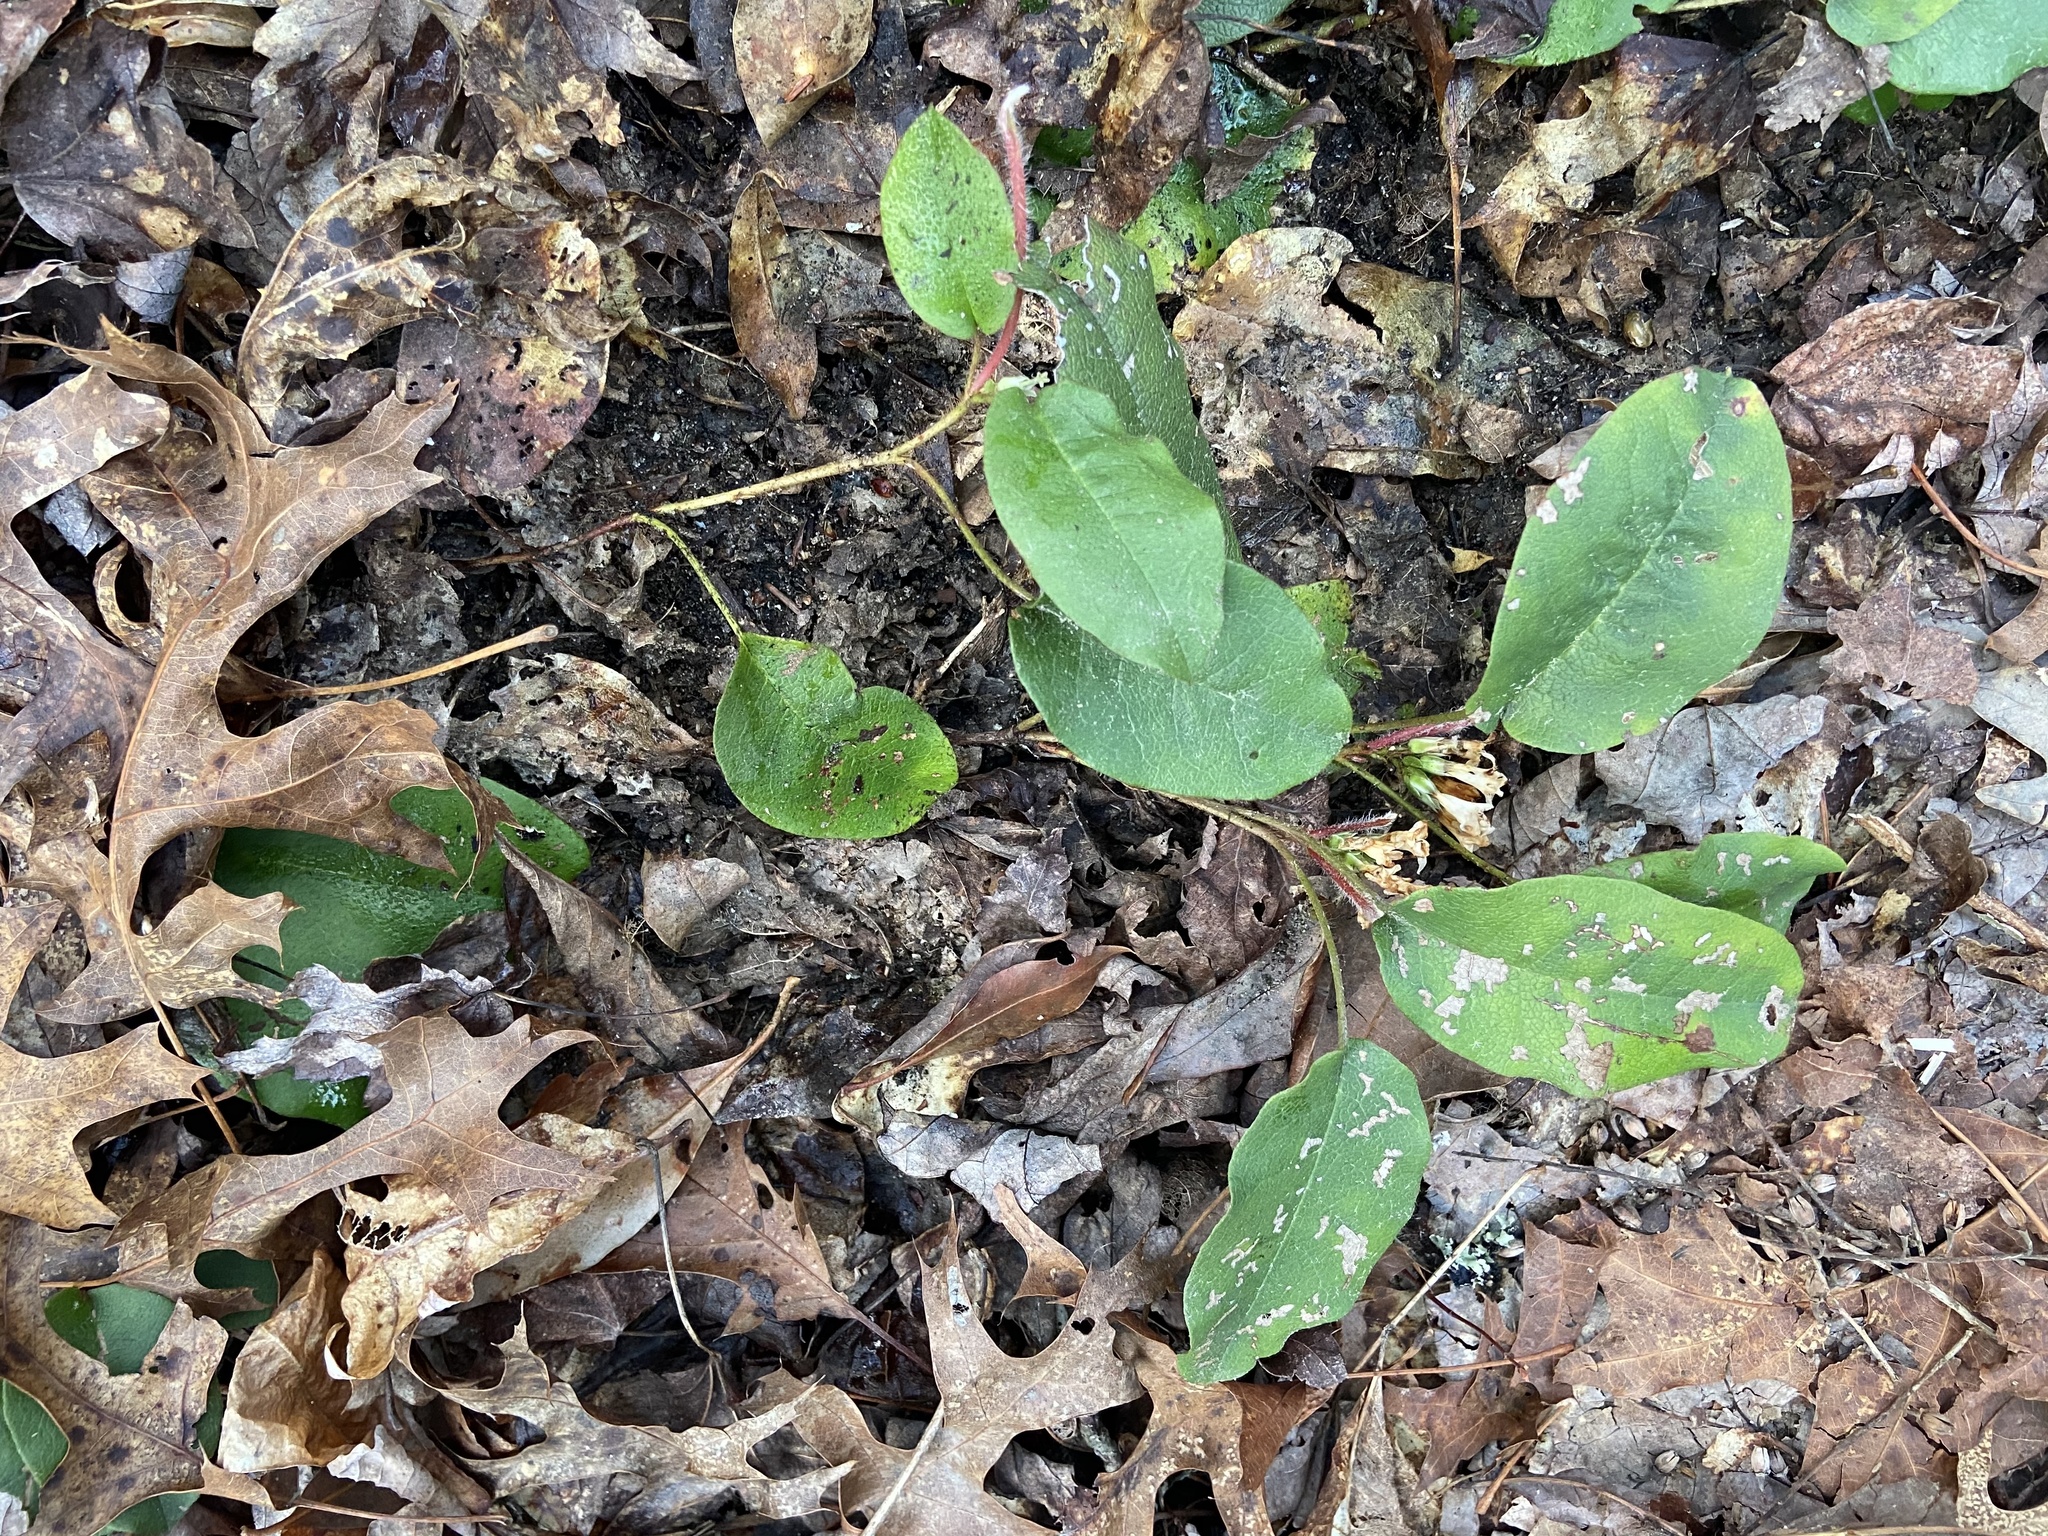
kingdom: Plantae
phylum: Tracheophyta
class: Magnoliopsida
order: Ericales
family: Ericaceae
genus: Epigaea
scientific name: Epigaea repens
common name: Gravelroot
